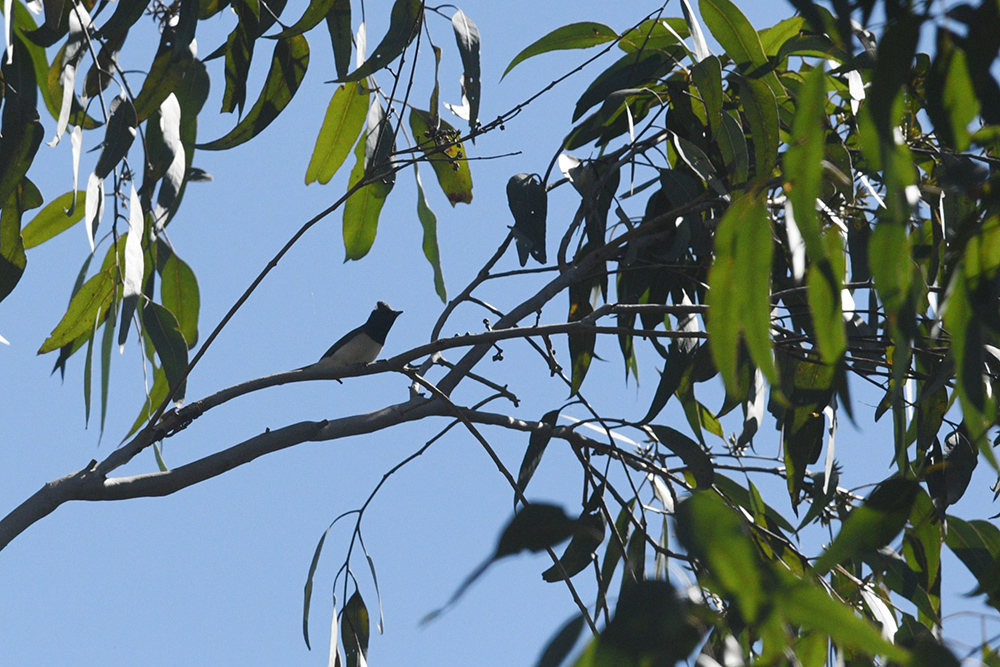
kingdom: Animalia
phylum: Chordata
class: Aves
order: Passeriformes
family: Monarchidae
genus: Myiagra
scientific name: Myiagra rubecula
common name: Leaden flycatcher
